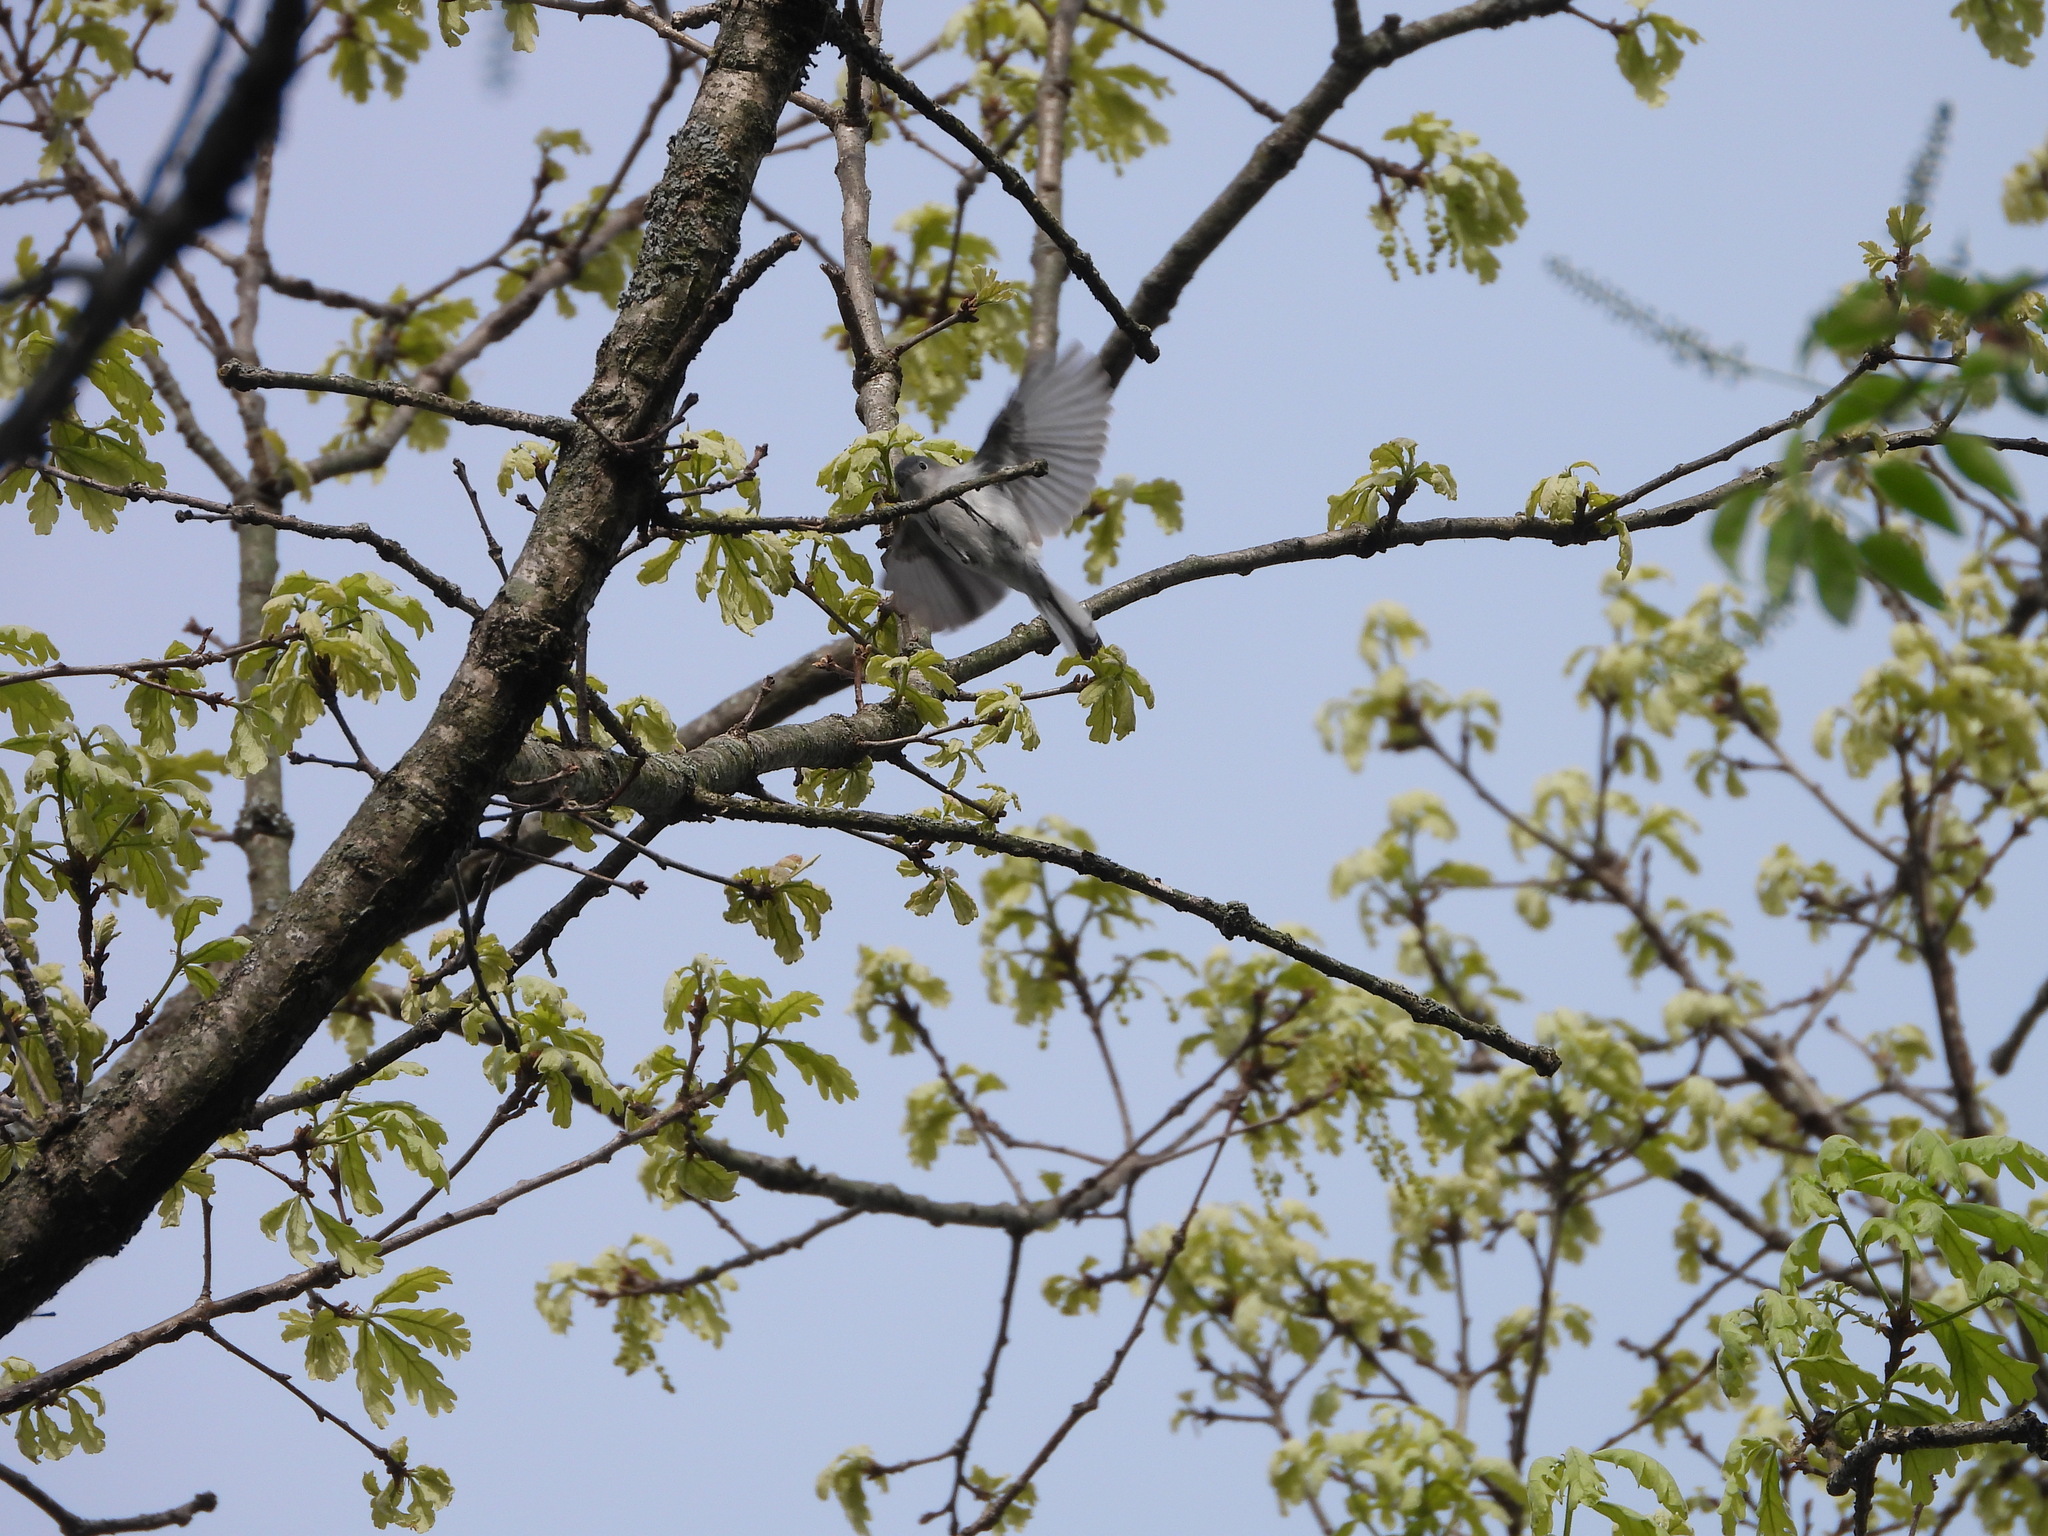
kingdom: Animalia
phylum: Chordata
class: Aves
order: Passeriformes
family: Polioptilidae
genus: Polioptila
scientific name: Polioptila caerulea
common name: Blue-gray gnatcatcher
